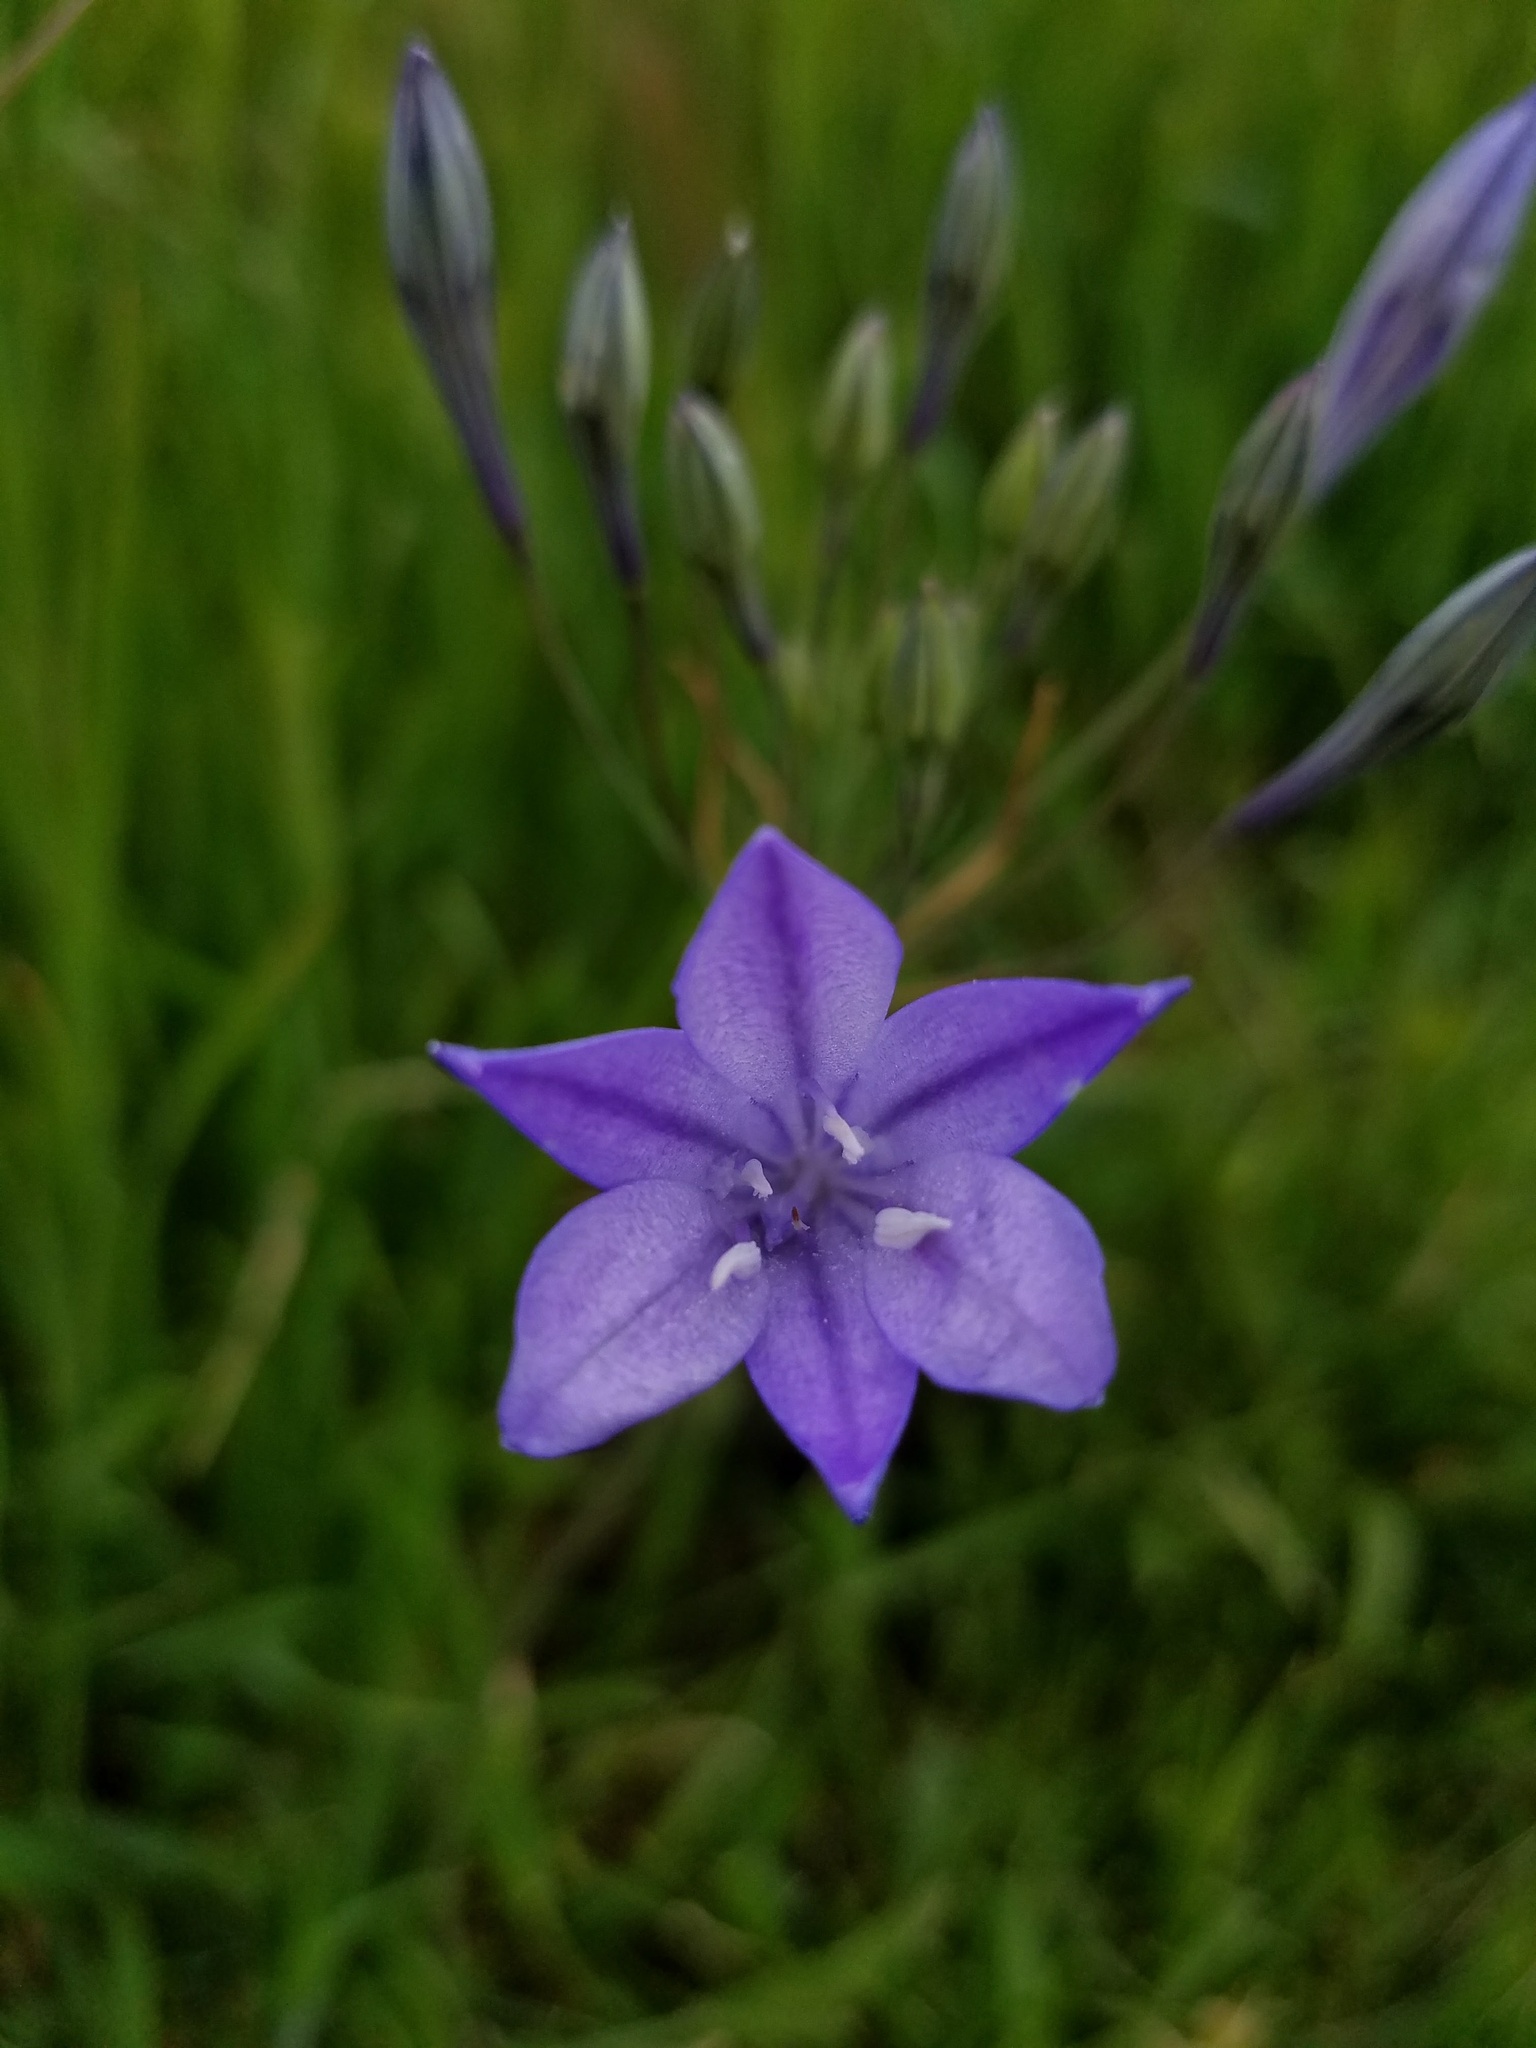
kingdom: Plantae
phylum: Tracheophyta
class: Liliopsida
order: Asparagales
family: Asparagaceae
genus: Triteleia
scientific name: Triteleia laxa
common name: Triplet-lily
